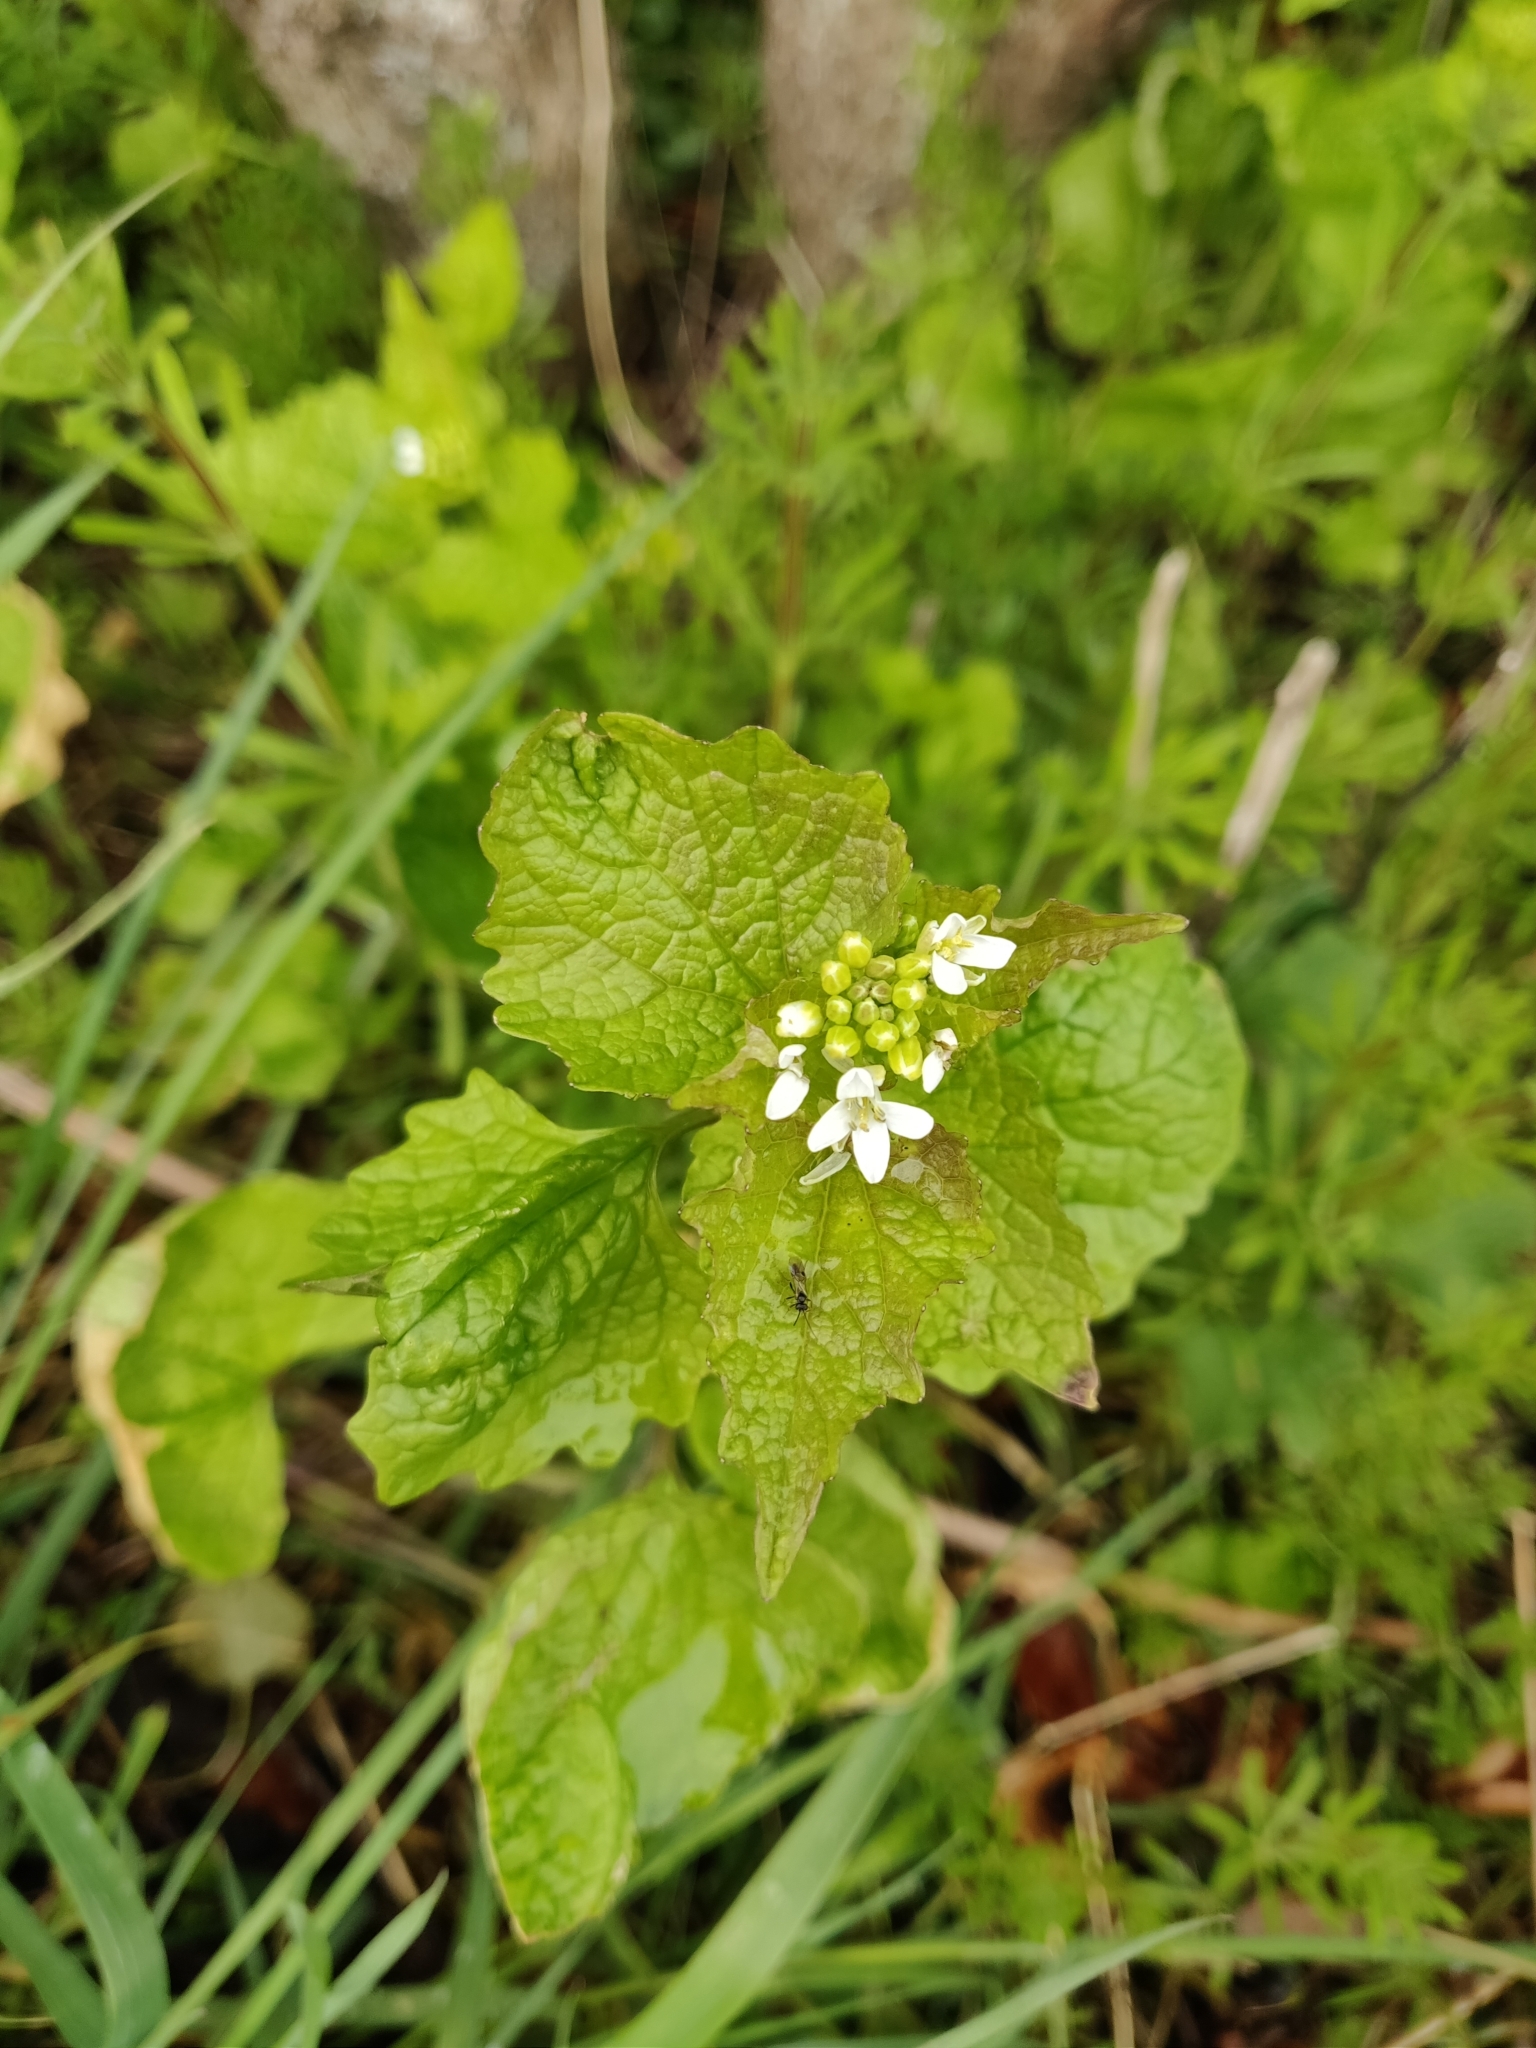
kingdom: Plantae
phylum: Tracheophyta
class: Magnoliopsida
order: Brassicales
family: Brassicaceae
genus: Alliaria
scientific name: Alliaria petiolata
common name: Garlic mustard
